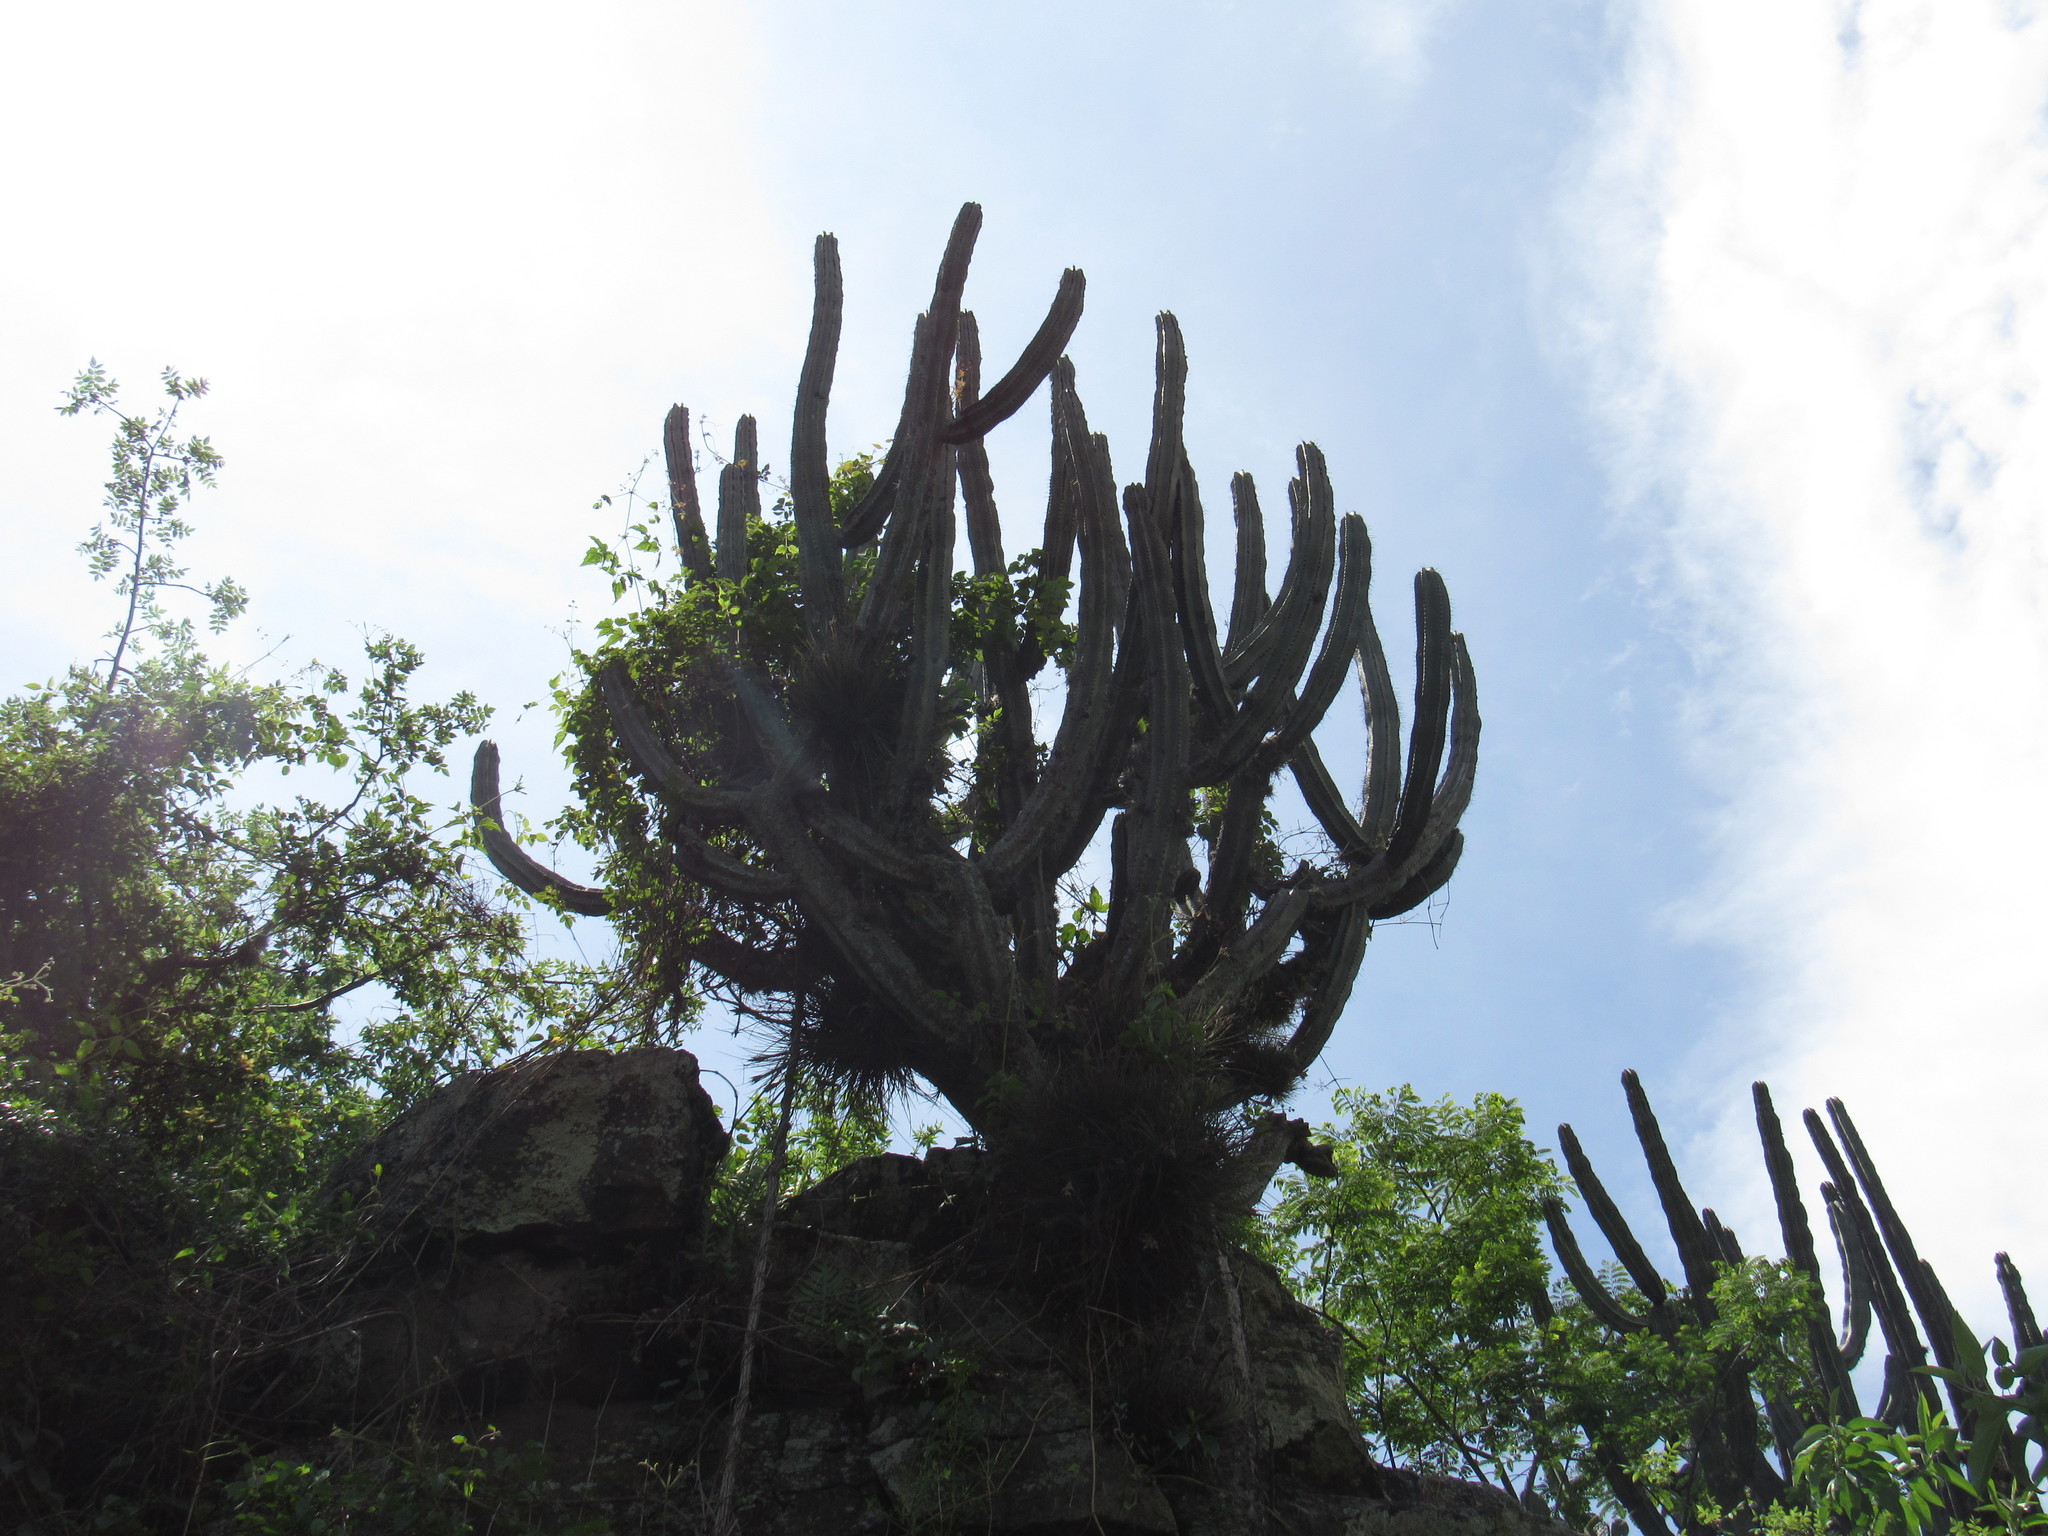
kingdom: Plantae
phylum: Tracheophyta
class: Magnoliopsida
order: Caryophyllales
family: Cactaceae
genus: Stenocereus
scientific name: Stenocereus queretaroensis
